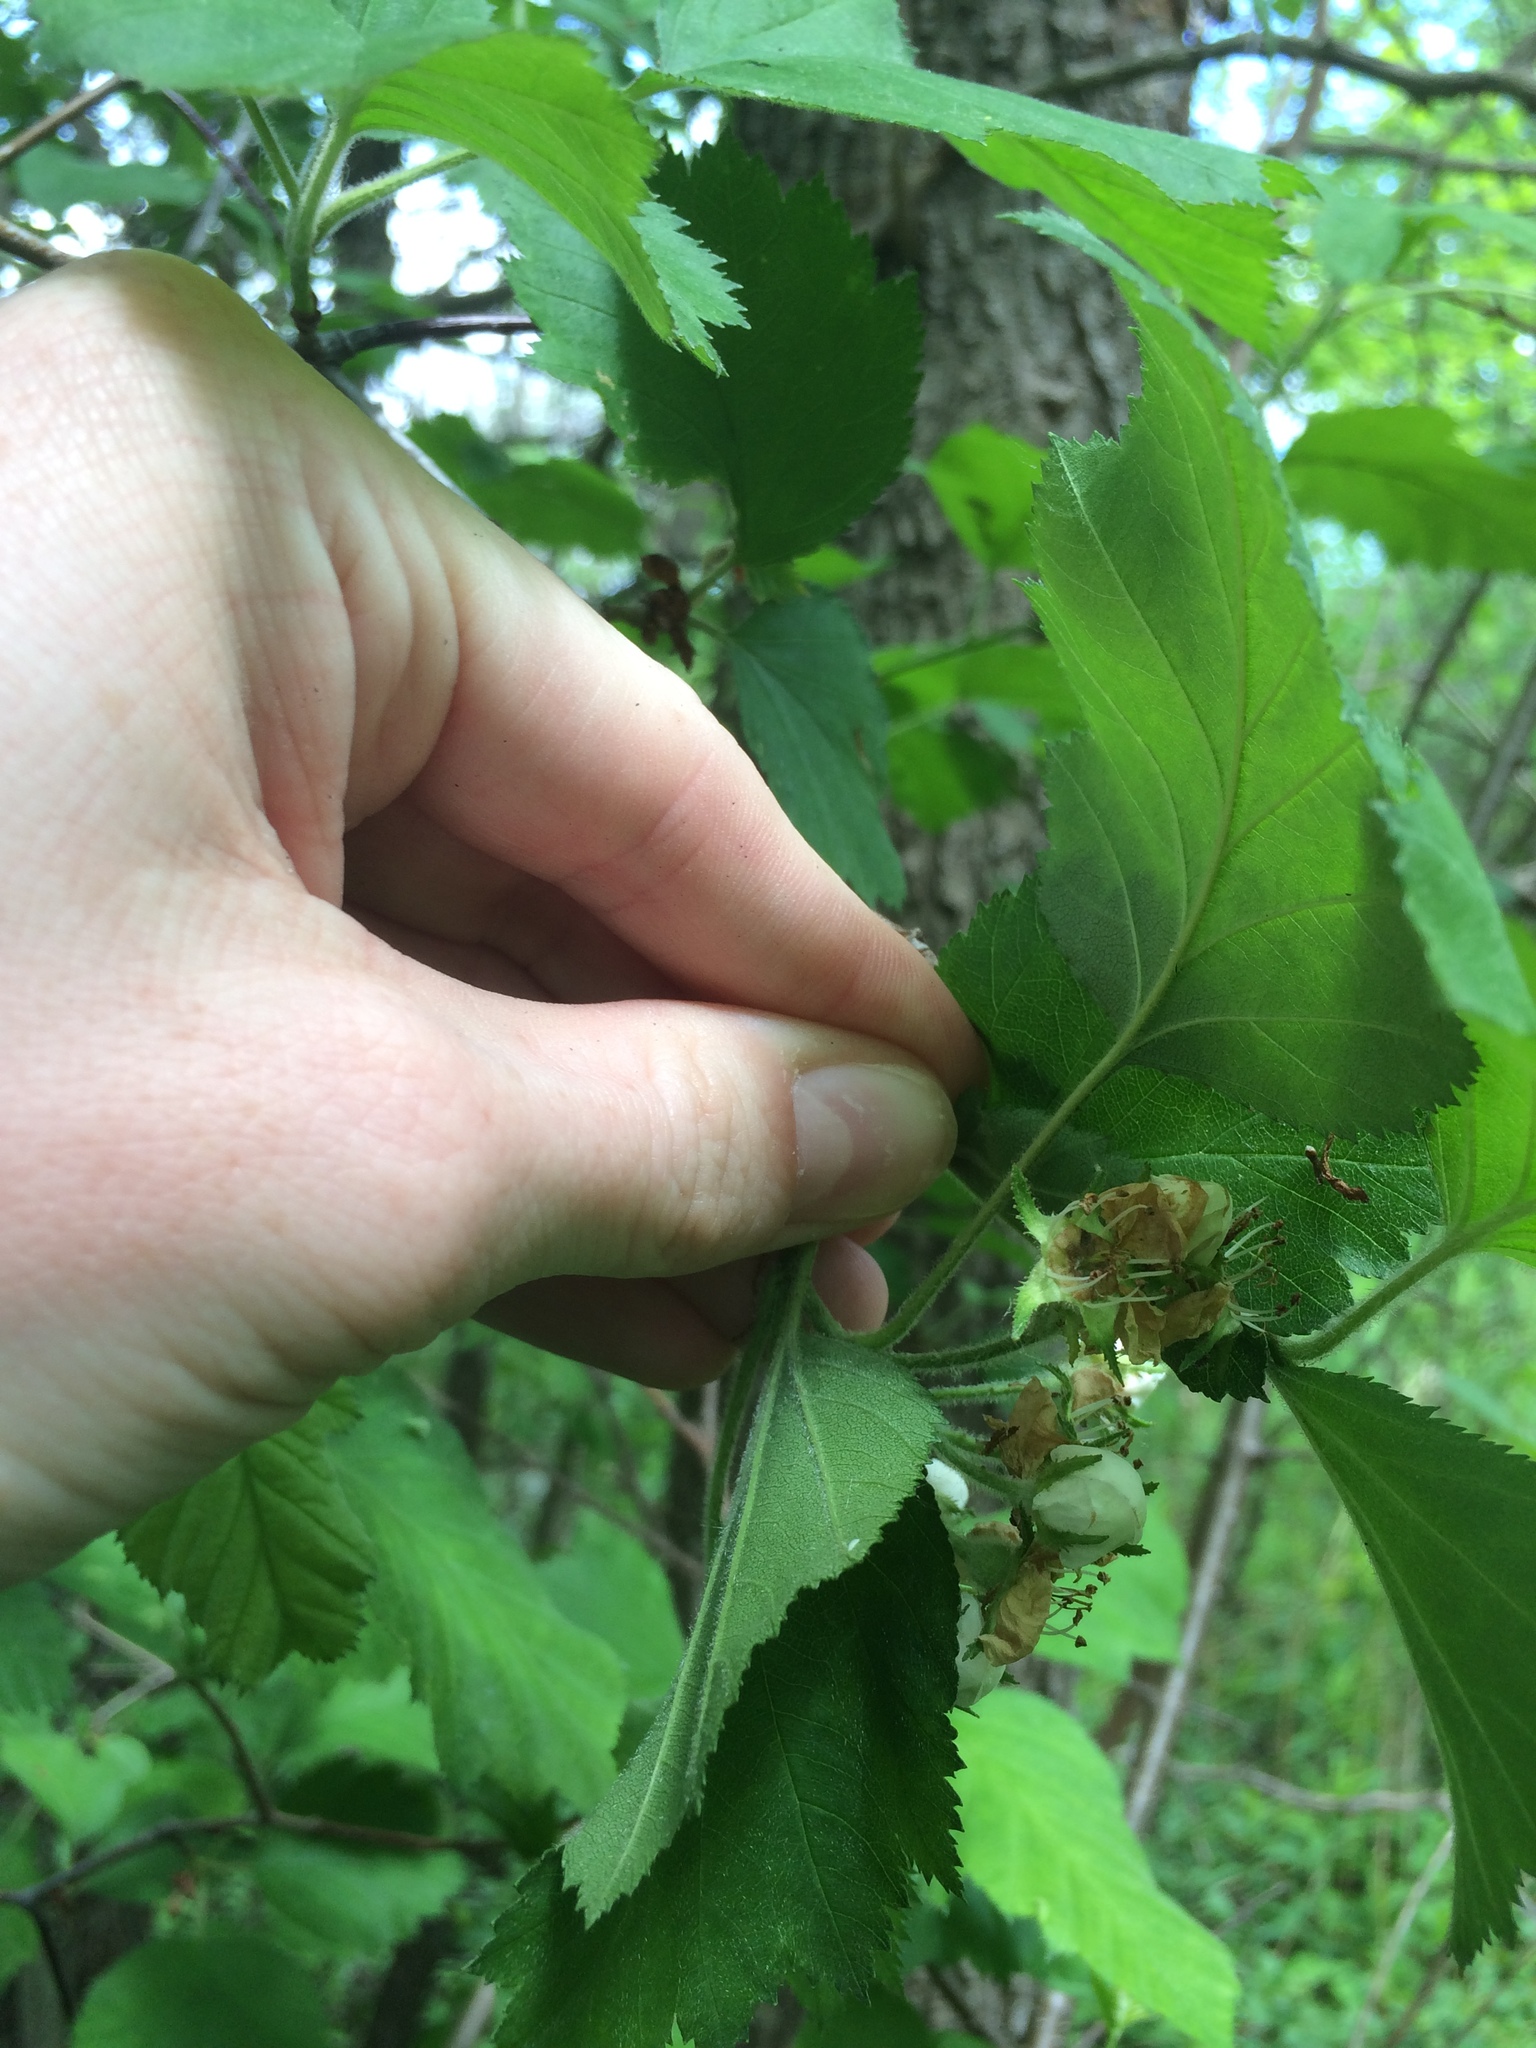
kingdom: Plantae
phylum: Tracheophyta
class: Magnoliopsida
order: Rosales
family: Rosaceae
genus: Crataegus
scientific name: Crataegus submollis
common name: Hairy cockspurthorn
